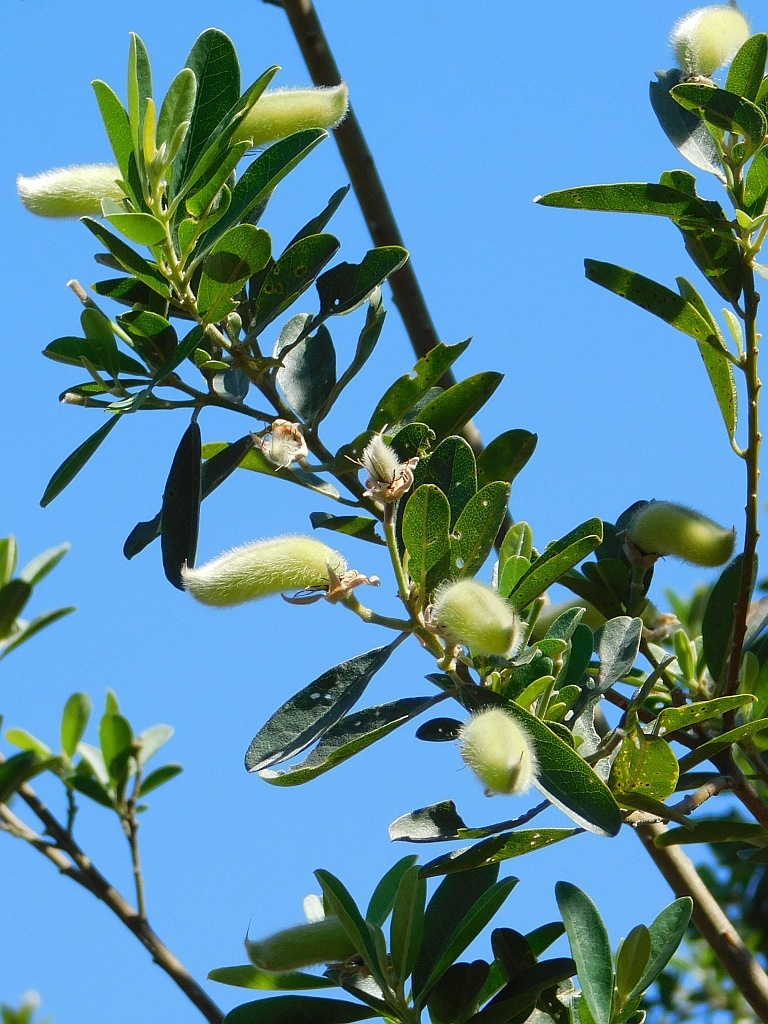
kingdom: Plantae
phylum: Tracheophyta
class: Magnoliopsida
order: Fabales
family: Fabaceae
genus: Podalyria
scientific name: Podalyria calyptrata
